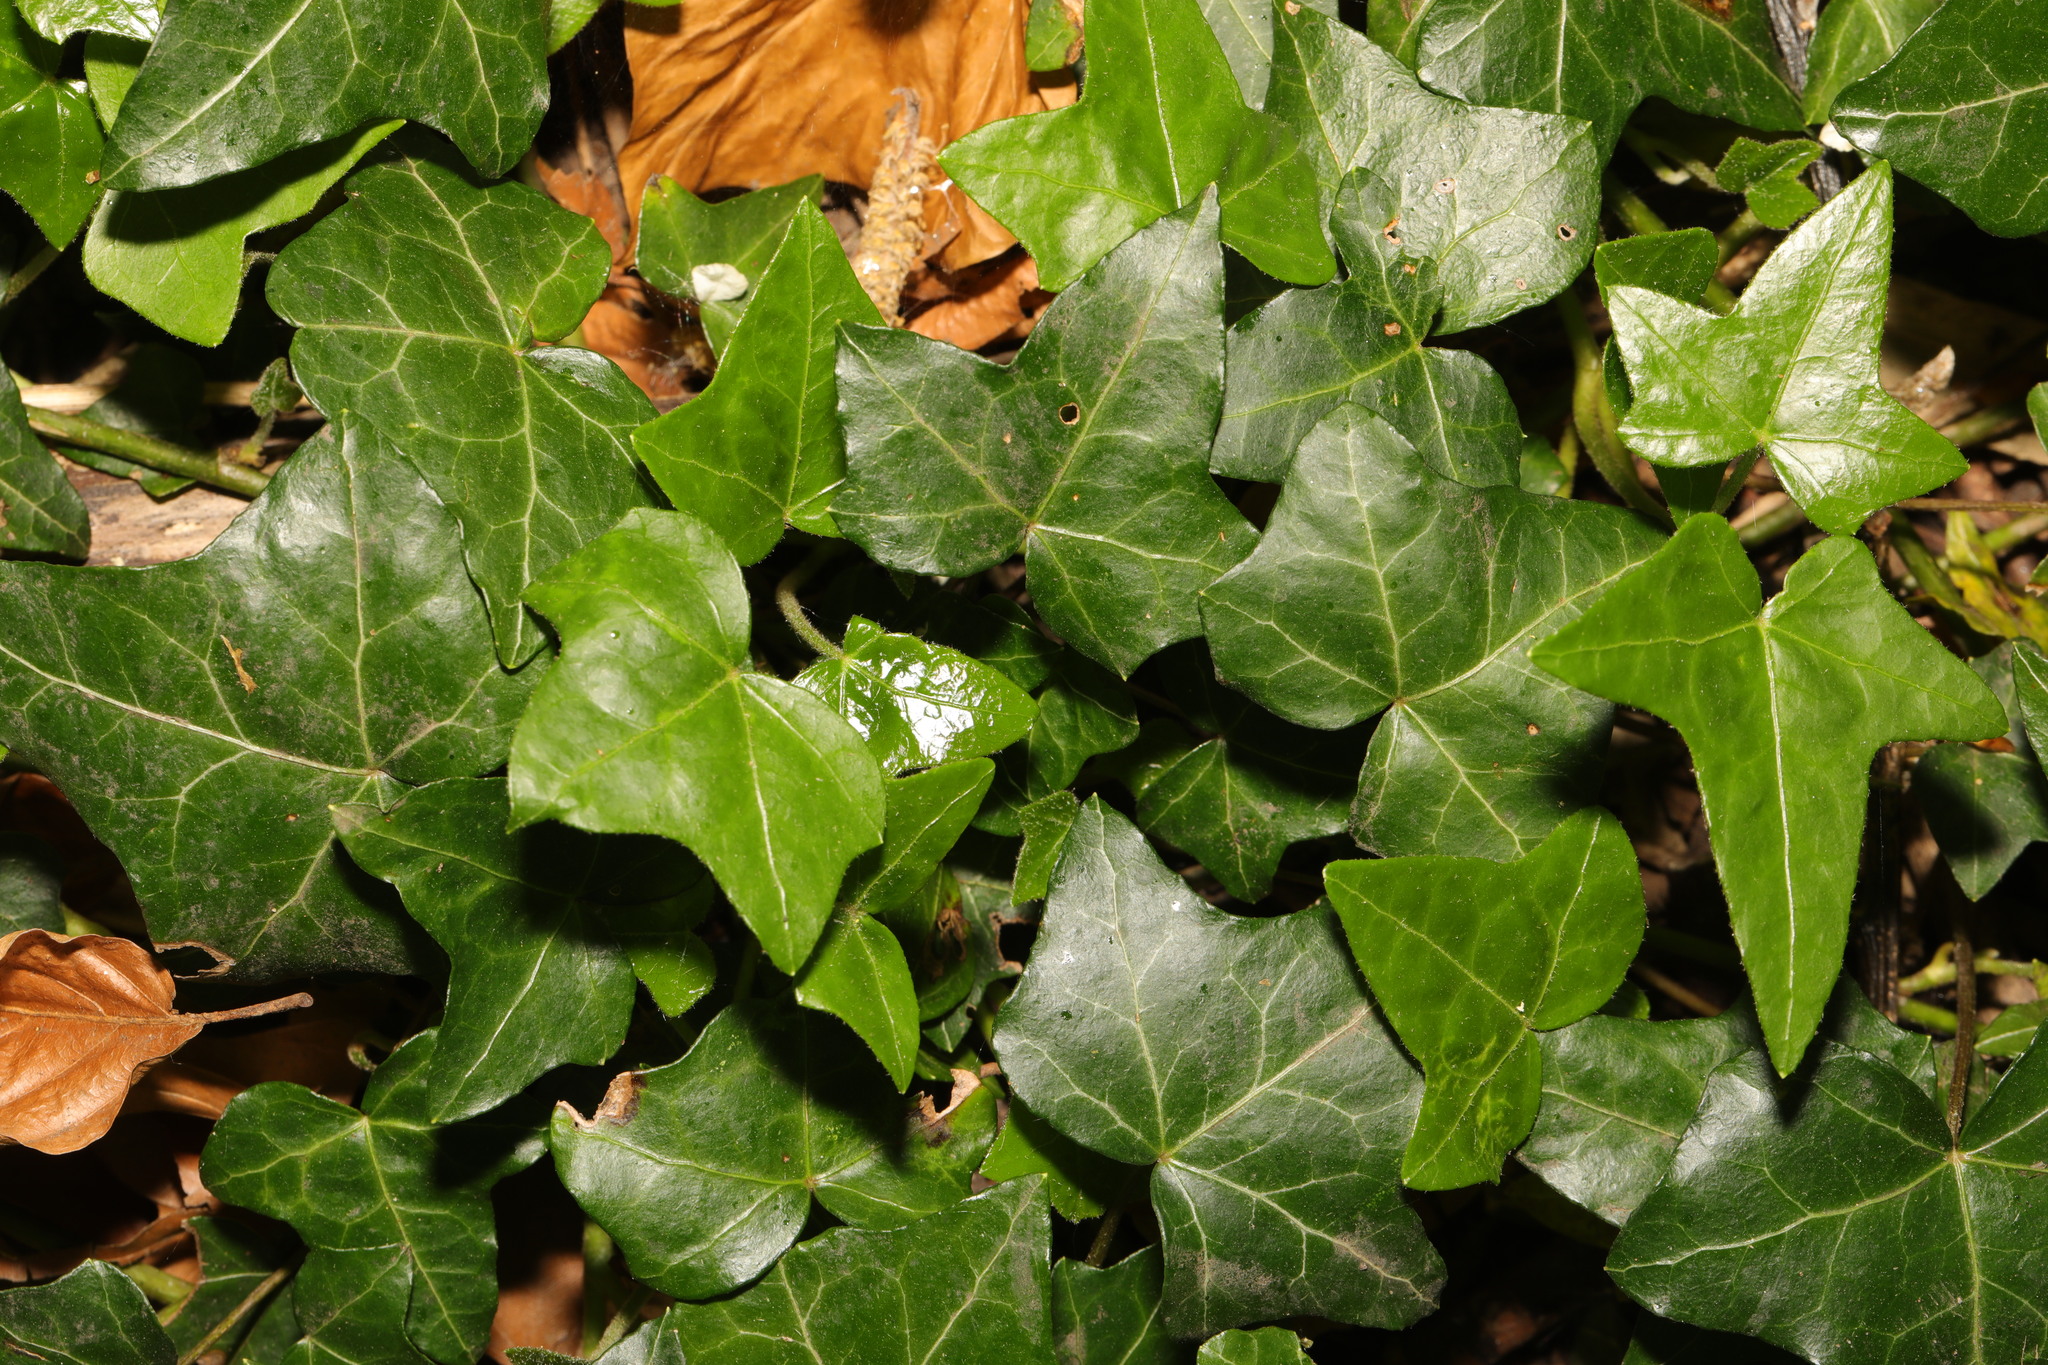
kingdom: Plantae
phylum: Tracheophyta
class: Magnoliopsida
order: Apiales
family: Araliaceae
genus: Hedera
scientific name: Hedera helix
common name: Ivy
